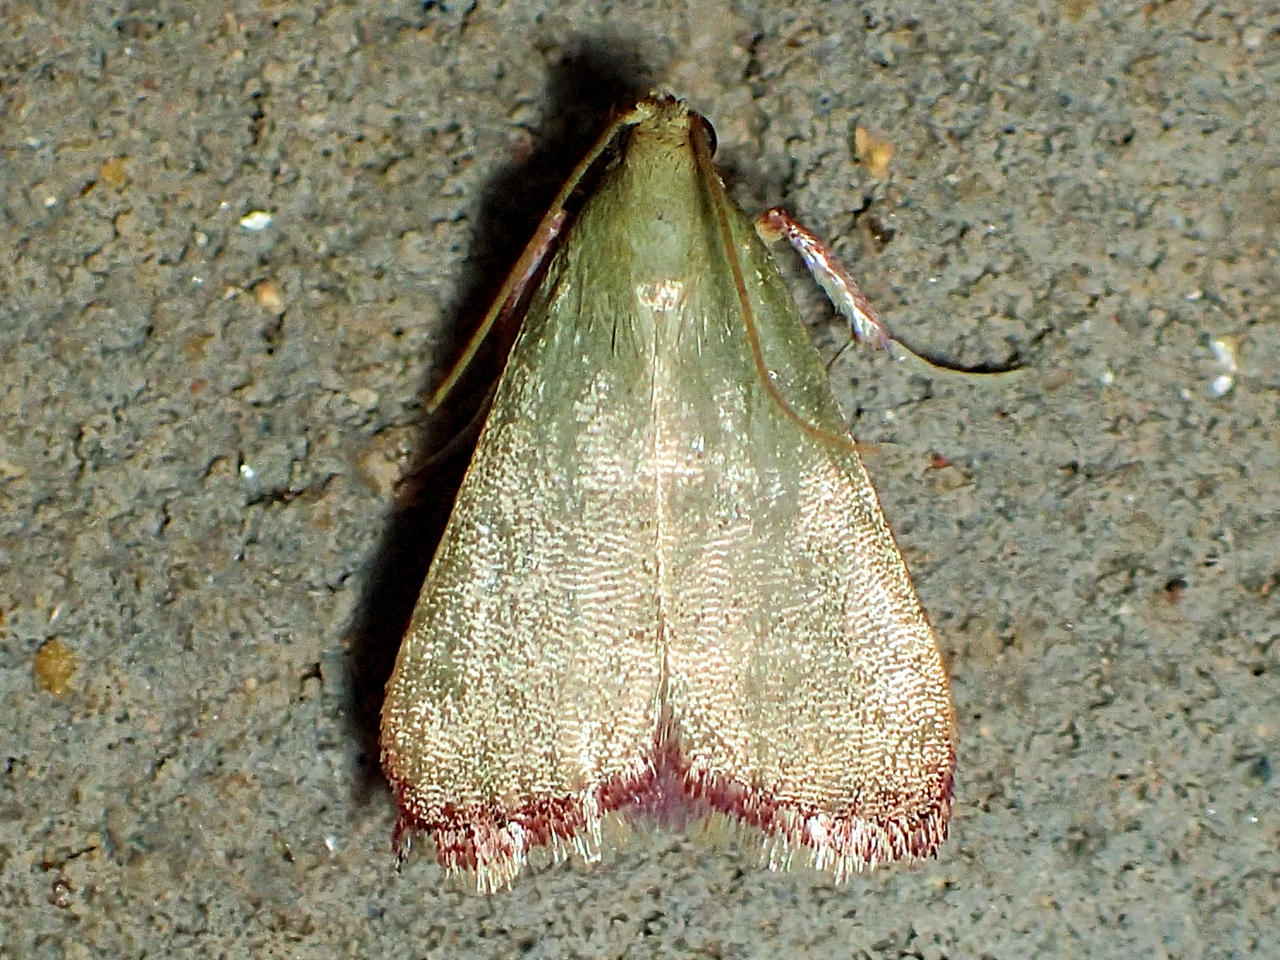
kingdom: Animalia
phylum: Arthropoda
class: Insecta
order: Lepidoptera
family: Pyralidae
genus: Arta
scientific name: Arta olivalis
